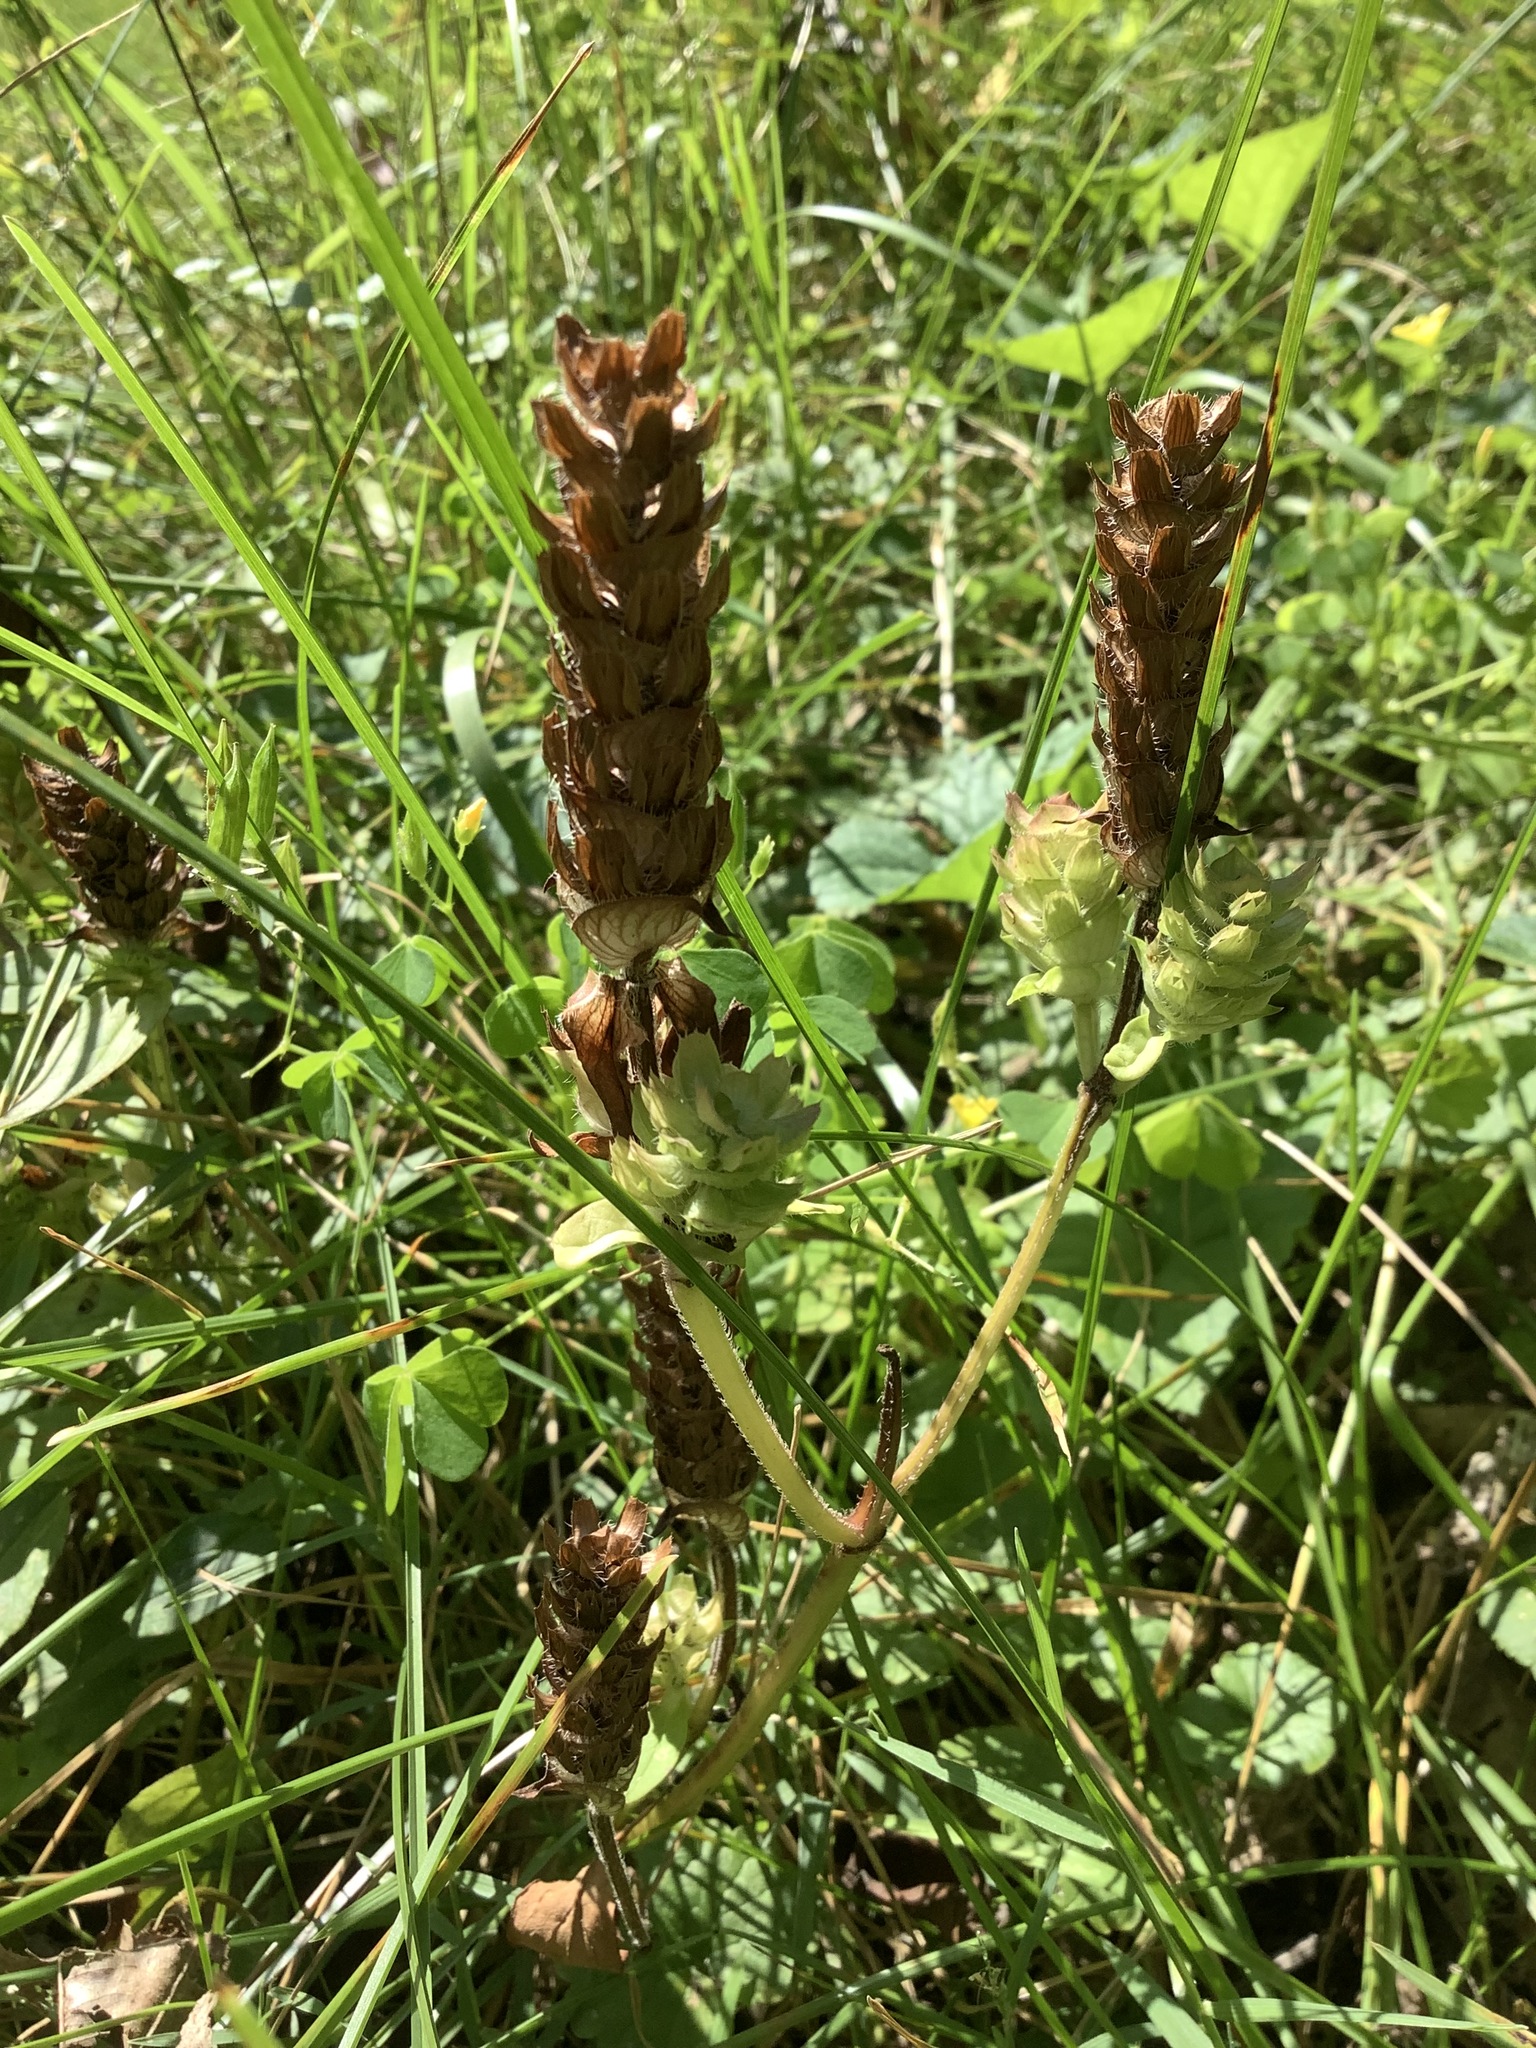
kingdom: Plantae
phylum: Tracheophyta
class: Magnoliopsida
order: Lamiales
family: Lamiaceae
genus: Prunella
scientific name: Prunella vulgaris
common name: Heal-all
